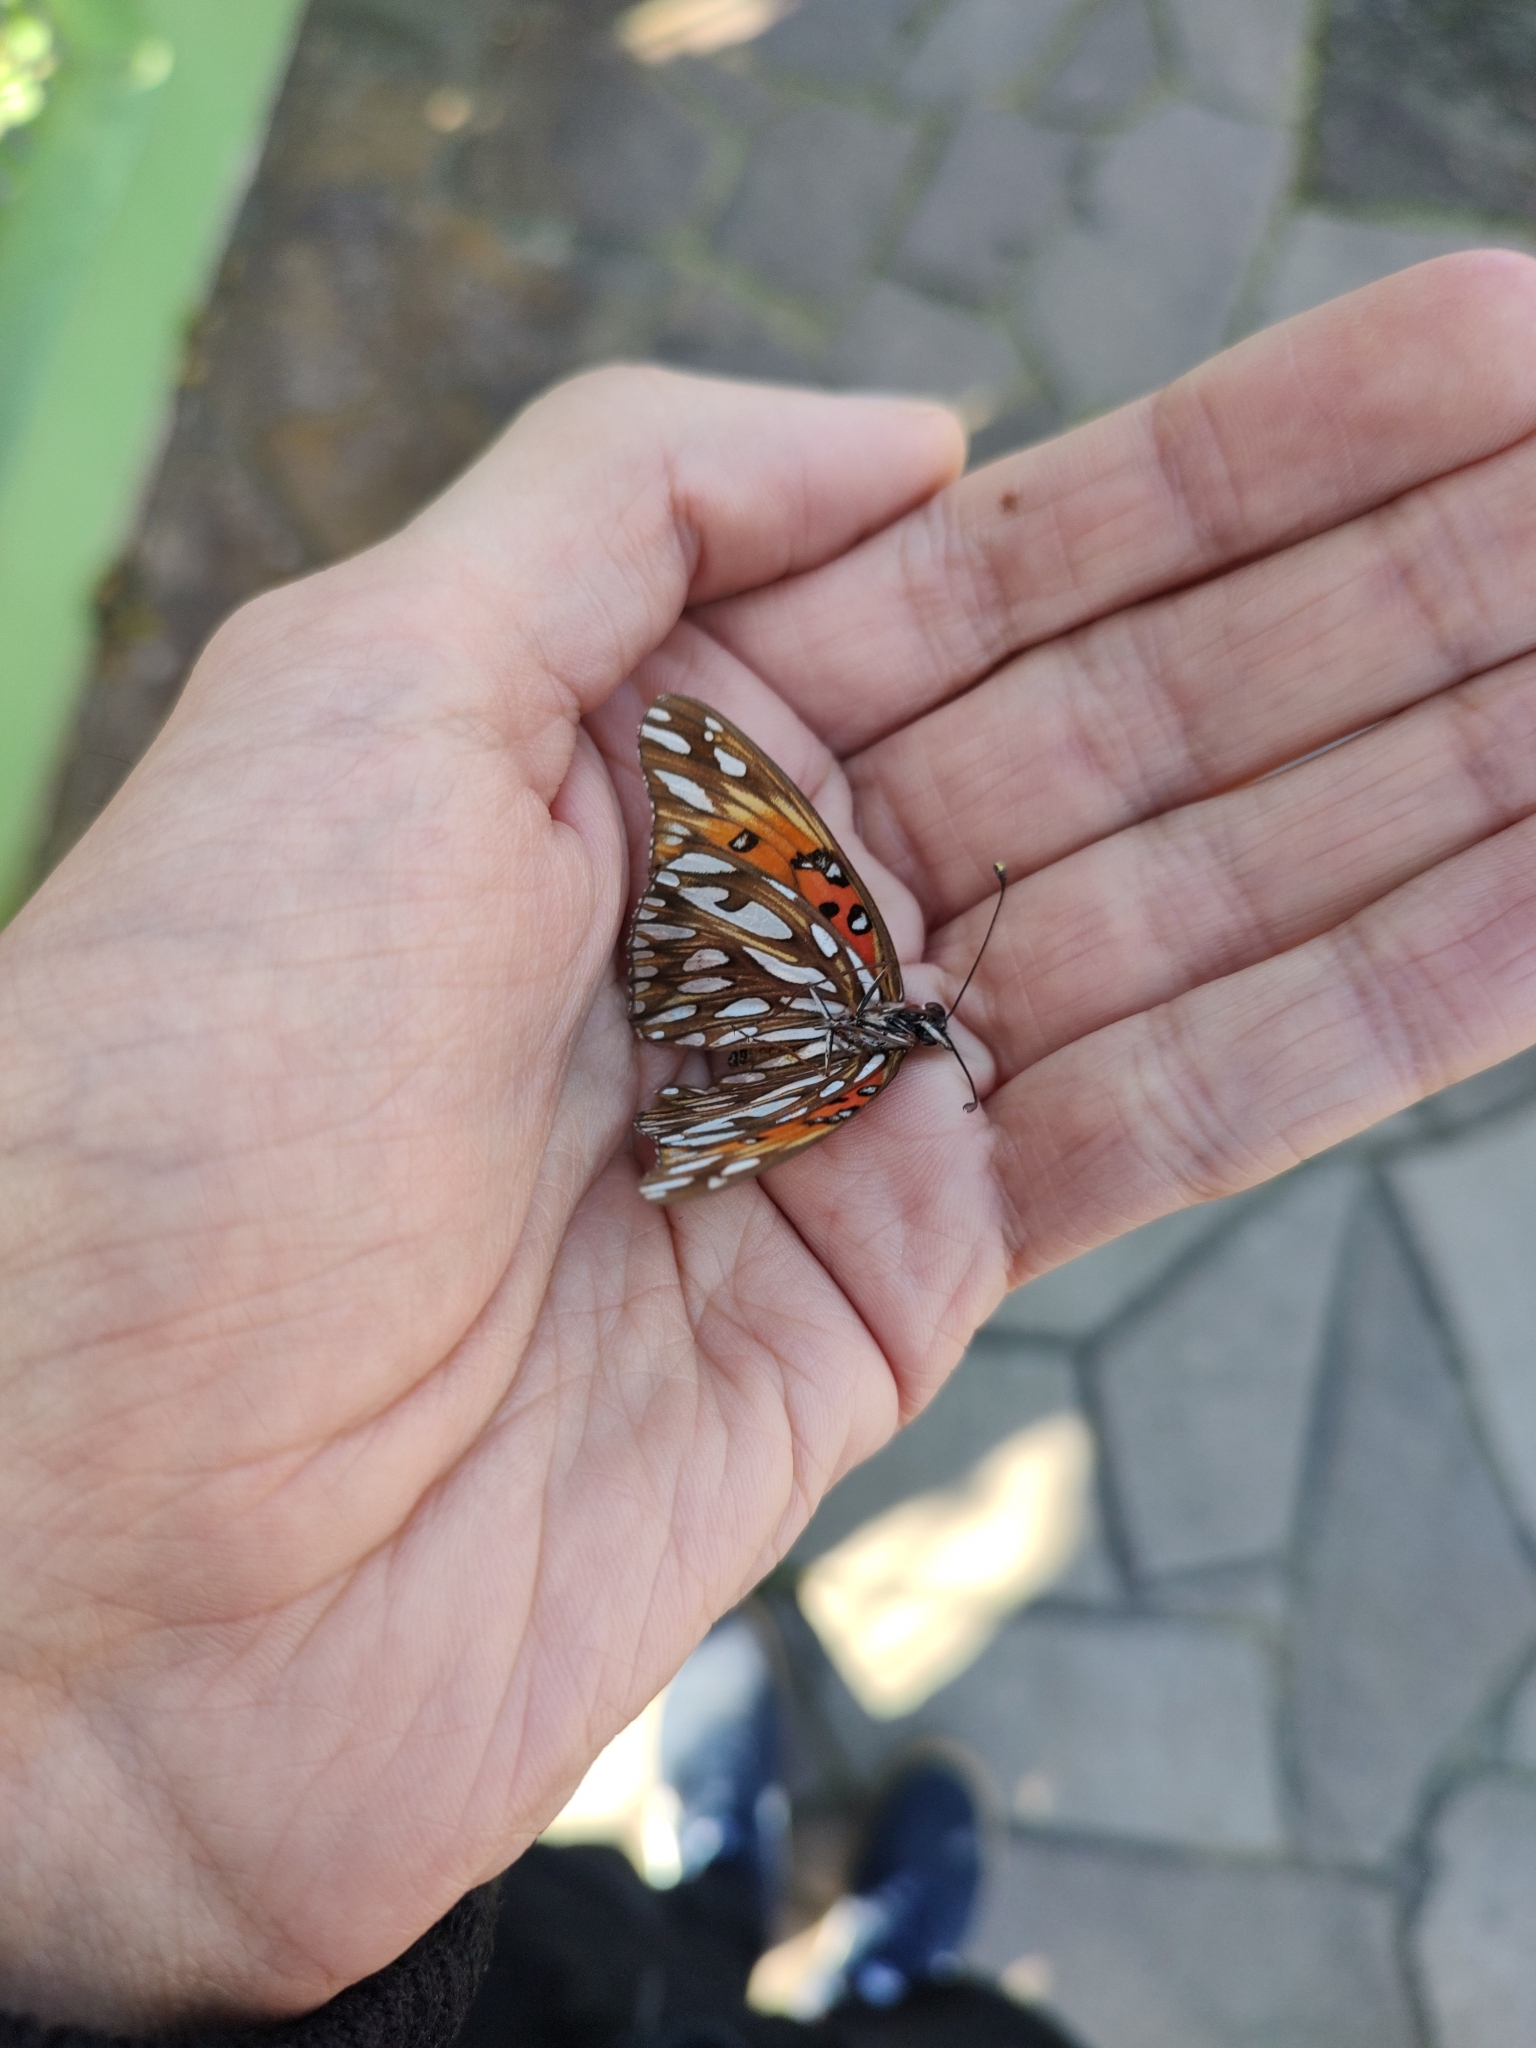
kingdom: Animalia
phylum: Arthropoda
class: Insecta
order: Lepidoptera
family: Nymphalidae
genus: Dione
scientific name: Dione vanillae
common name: Gulf fritillary
